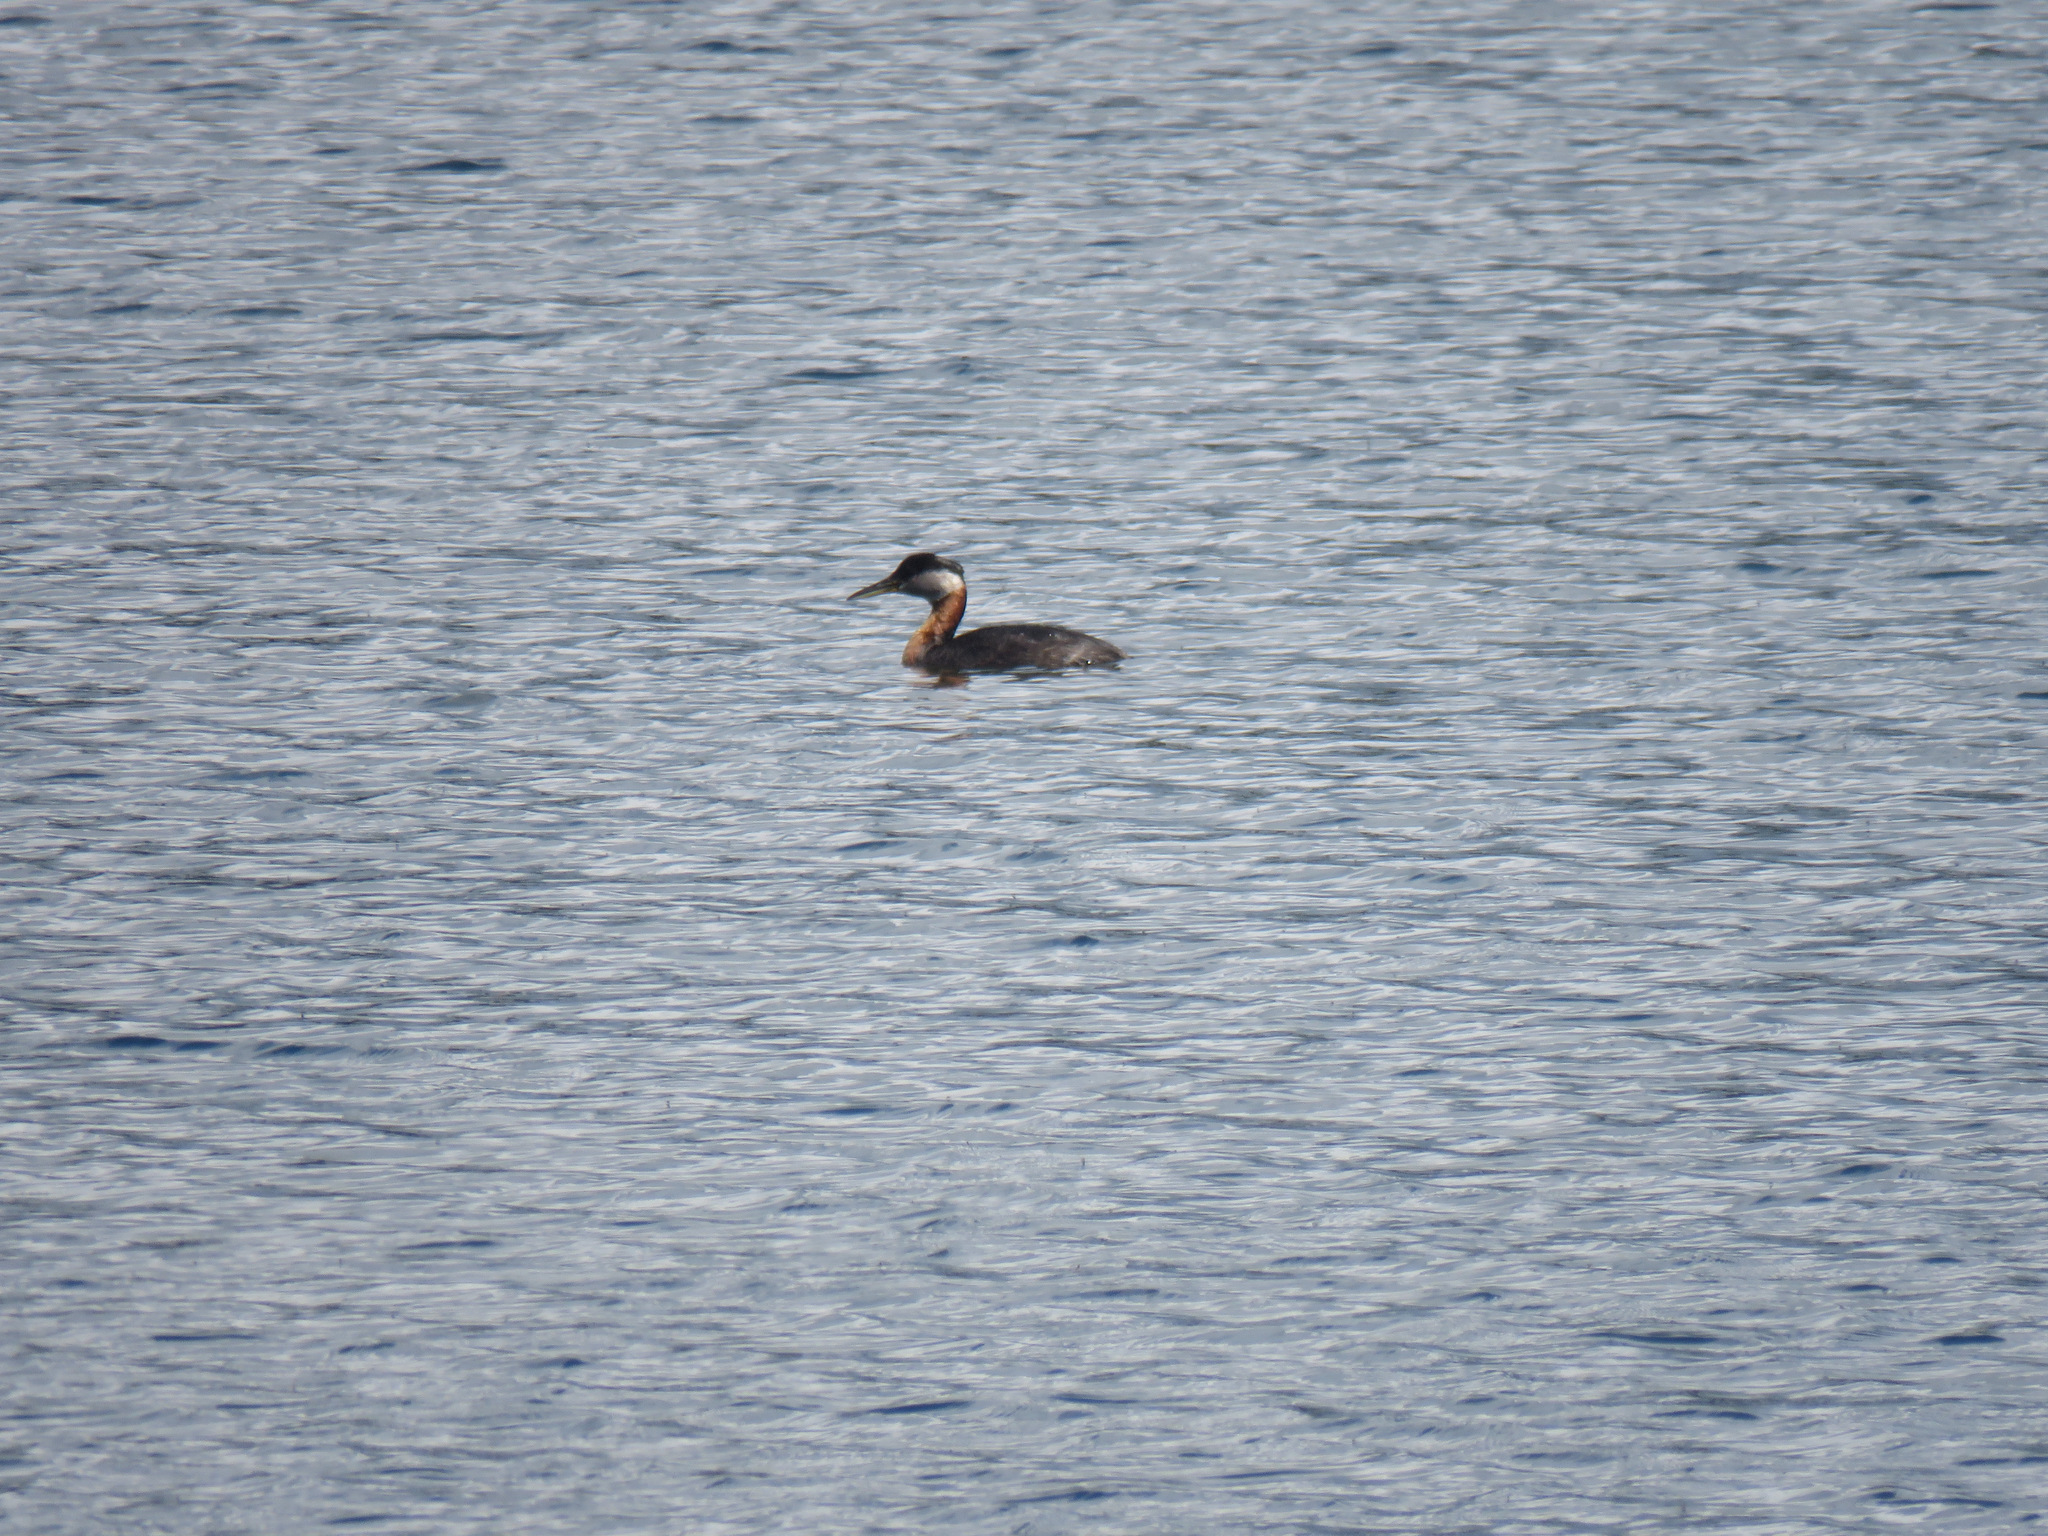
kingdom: Animalia
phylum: Chordata
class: Aves
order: Podicipediformes
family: Podicipedidae
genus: Podiceps
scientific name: Podiceps grisegena
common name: Red-necked grebe
